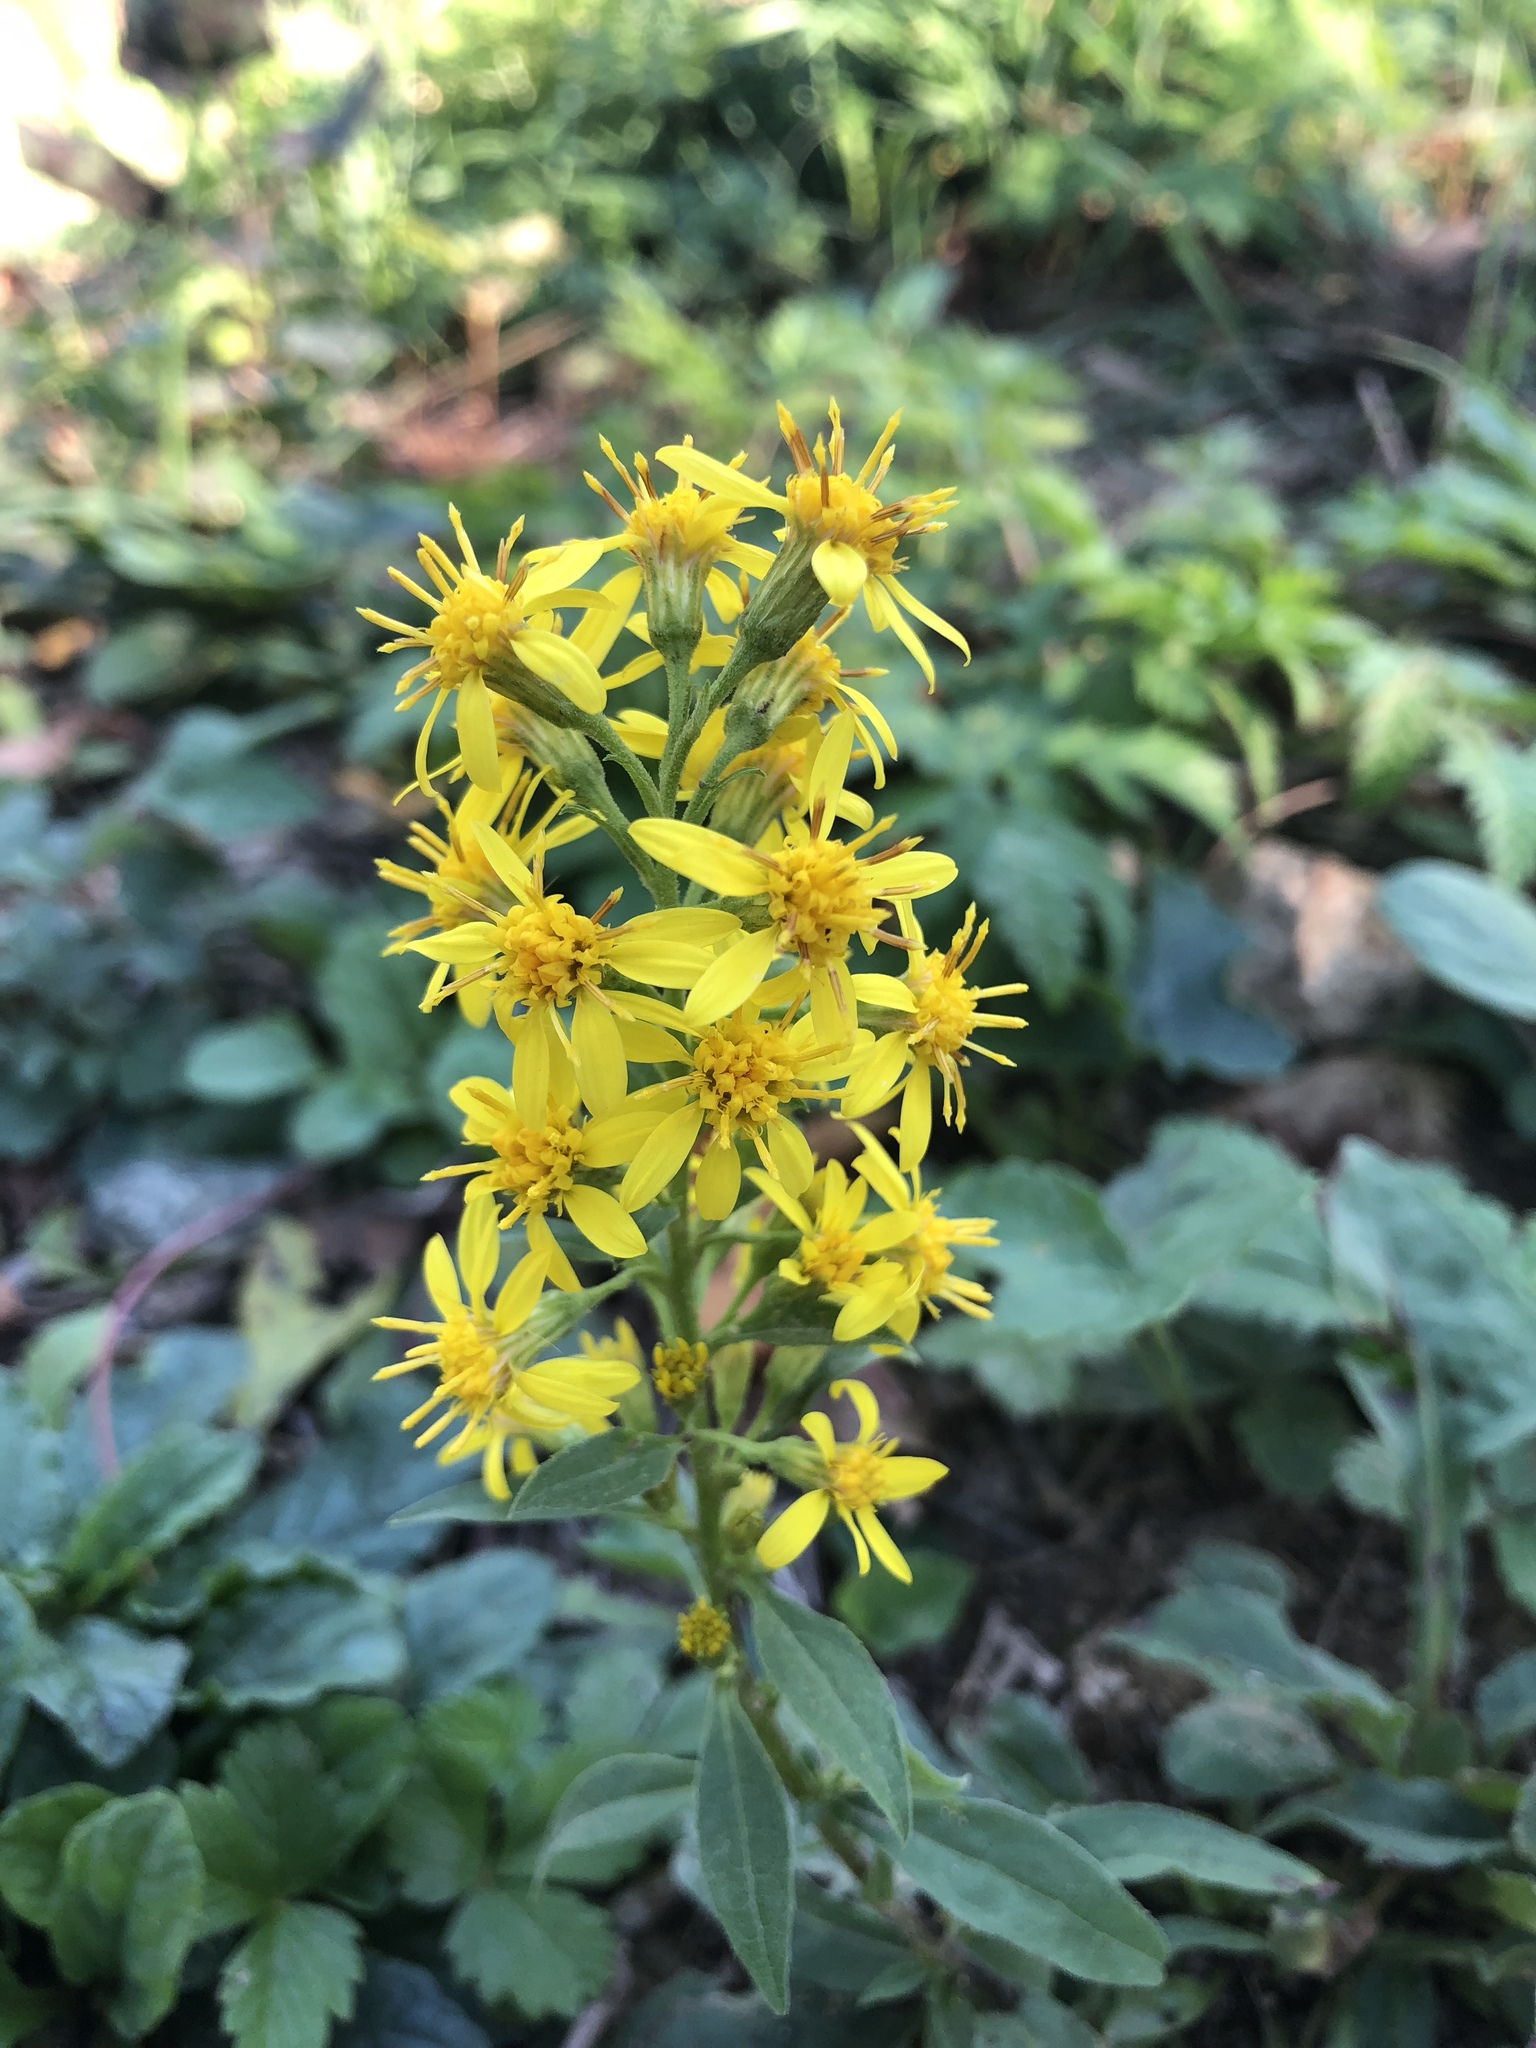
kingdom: Plantae
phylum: Tracheophyta
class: Magnoliopsida
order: Asterales
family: Asteraceae
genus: Solidago
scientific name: Solidago virgaurea
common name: Goldenrod
